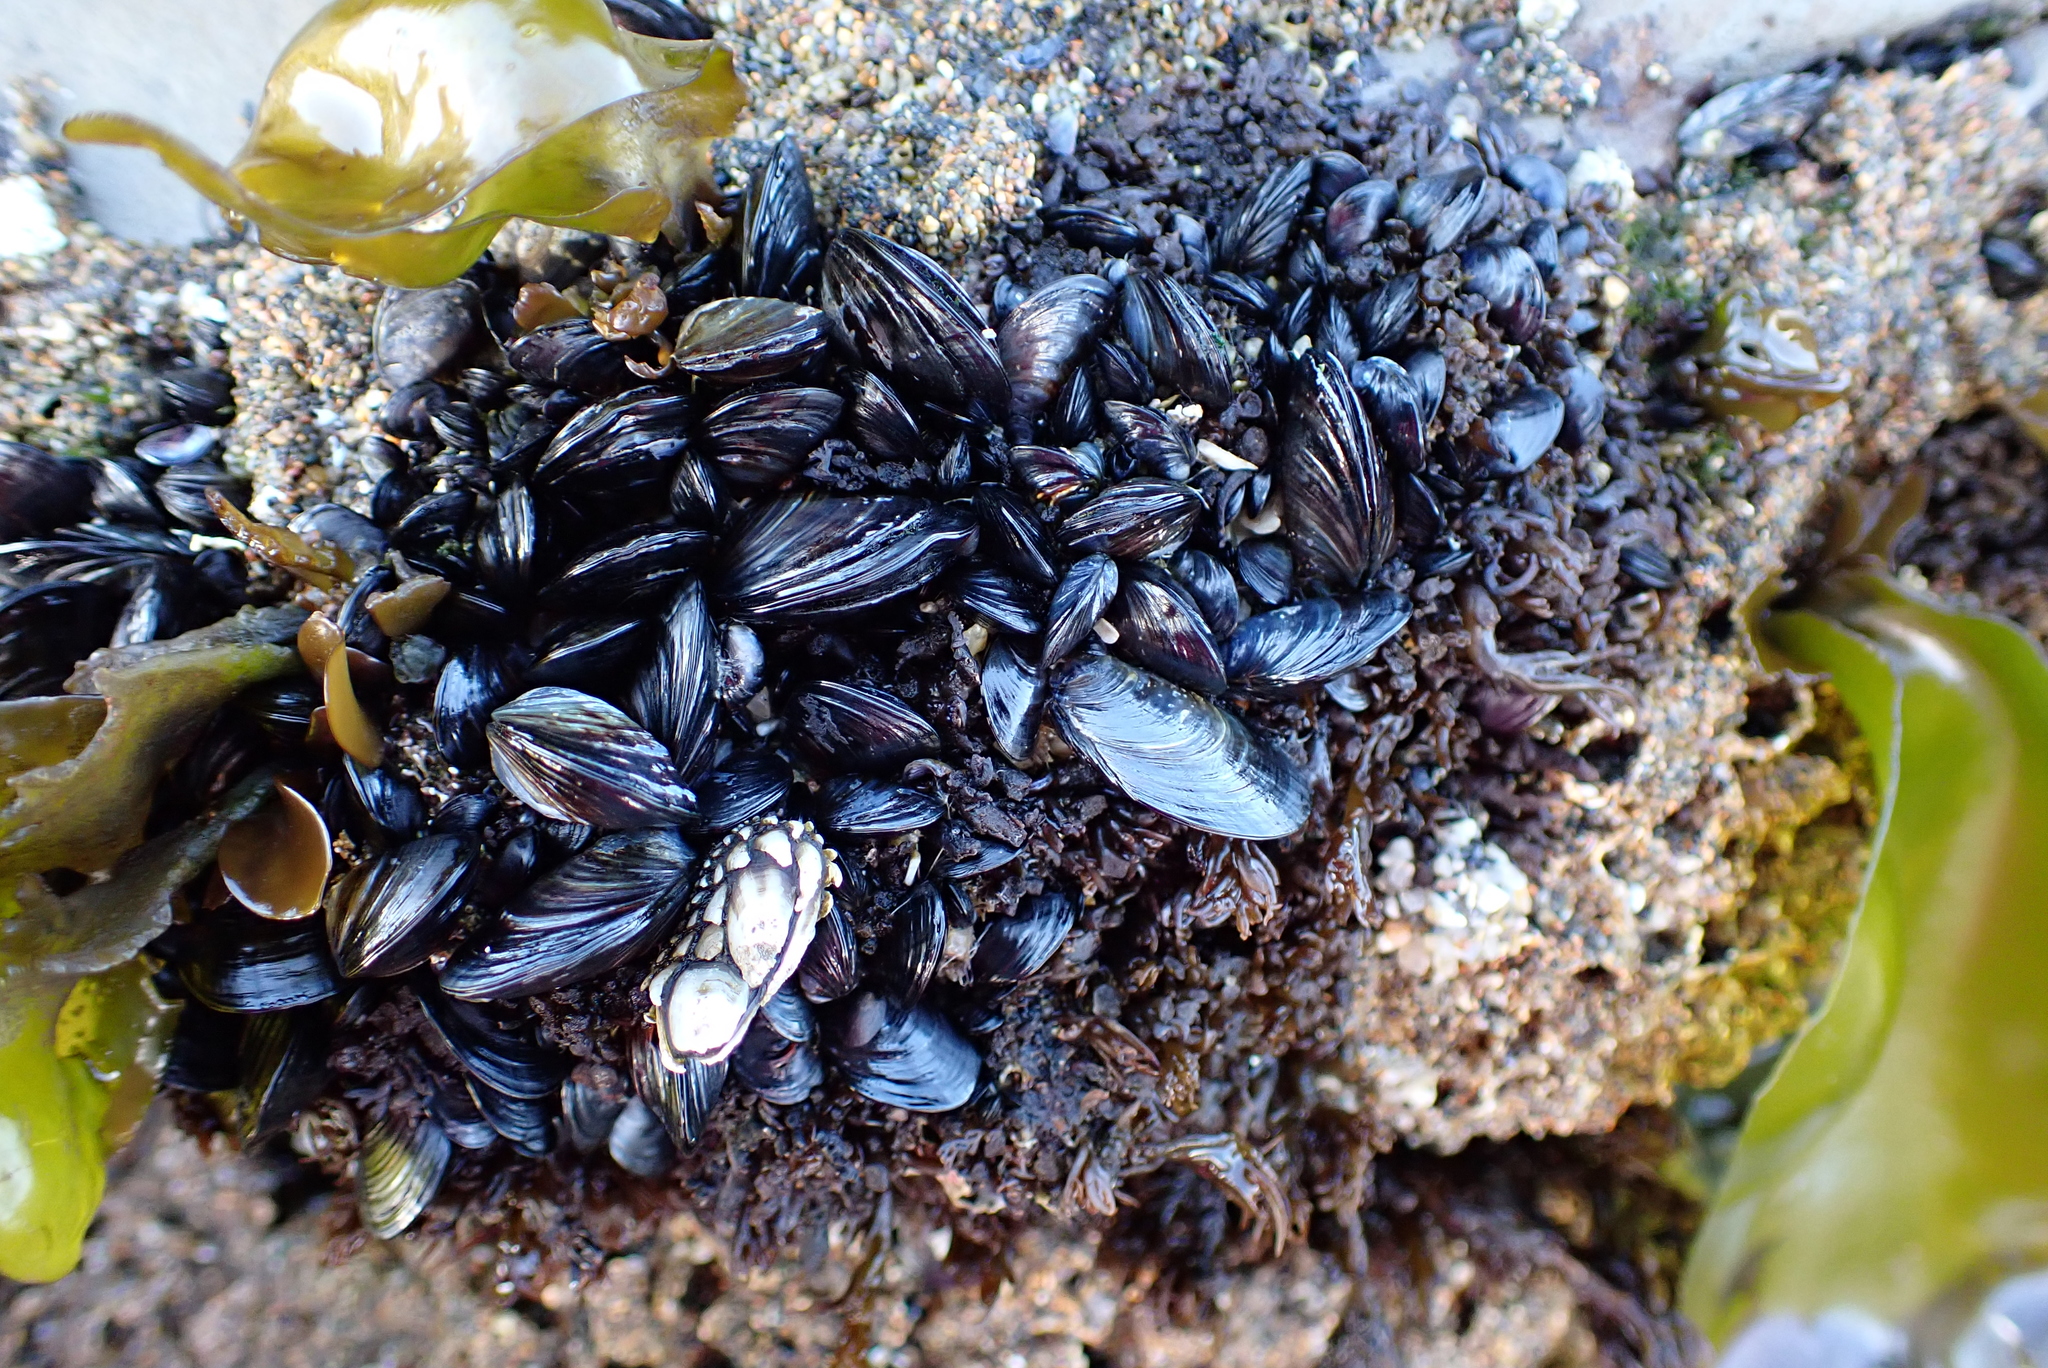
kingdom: Animalia
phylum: Mollusca
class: Bivalvia
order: Mytilida
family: Mytilidae
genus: Mytilus
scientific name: Mytilus californianus
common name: California mussel
